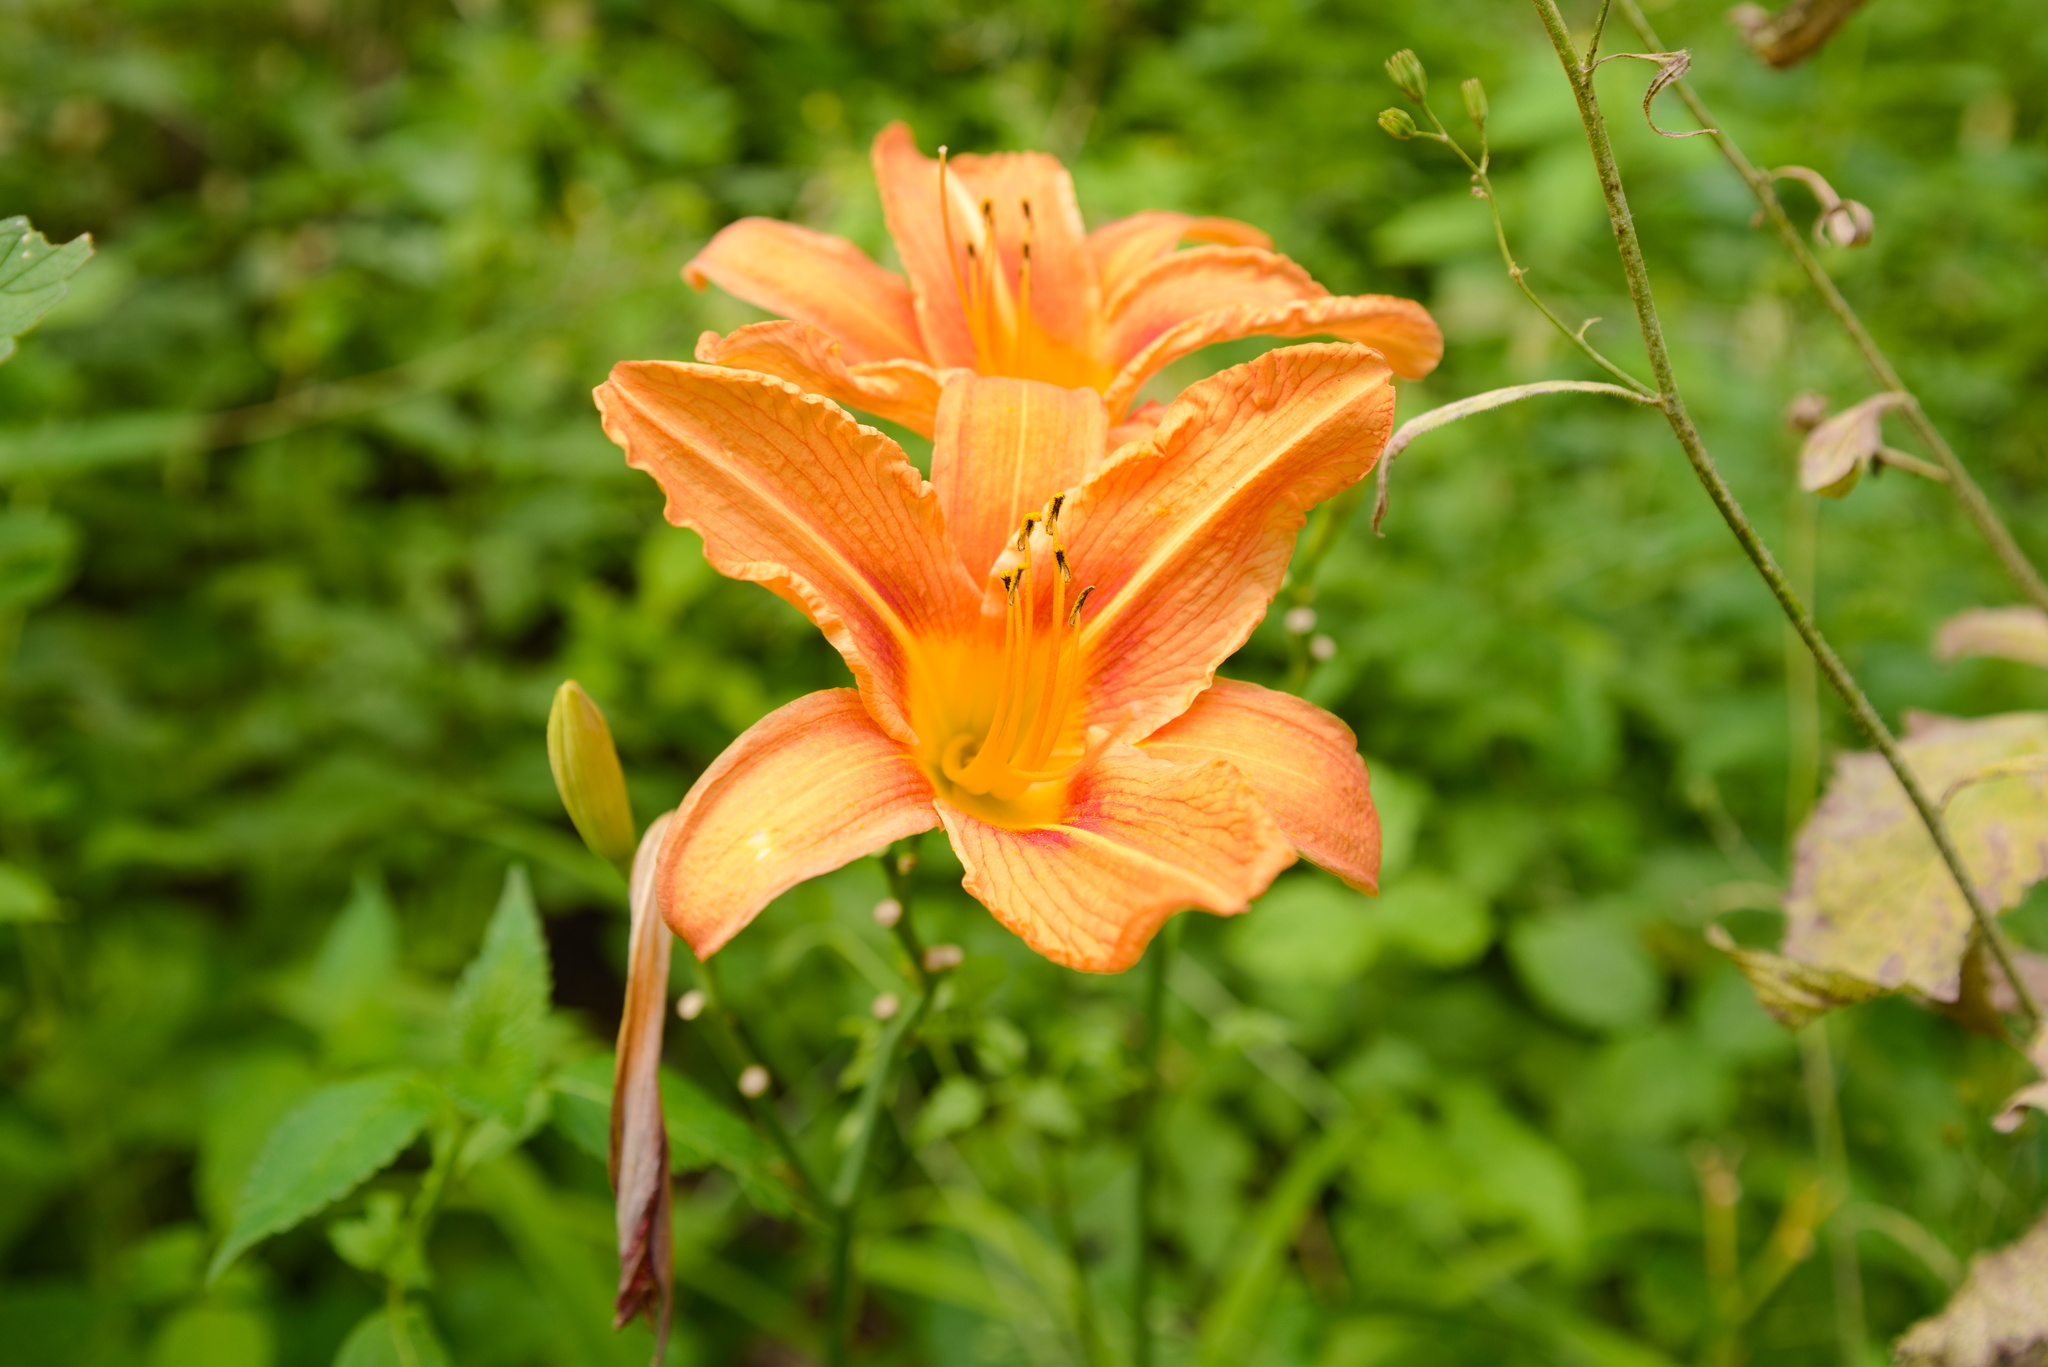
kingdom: Plantae
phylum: Tracheophyta
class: Liliopsida
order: Asparagales
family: Asphodelaceae
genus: Hemerocallis
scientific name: Hemerocallis fulva
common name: Orange day-lily
